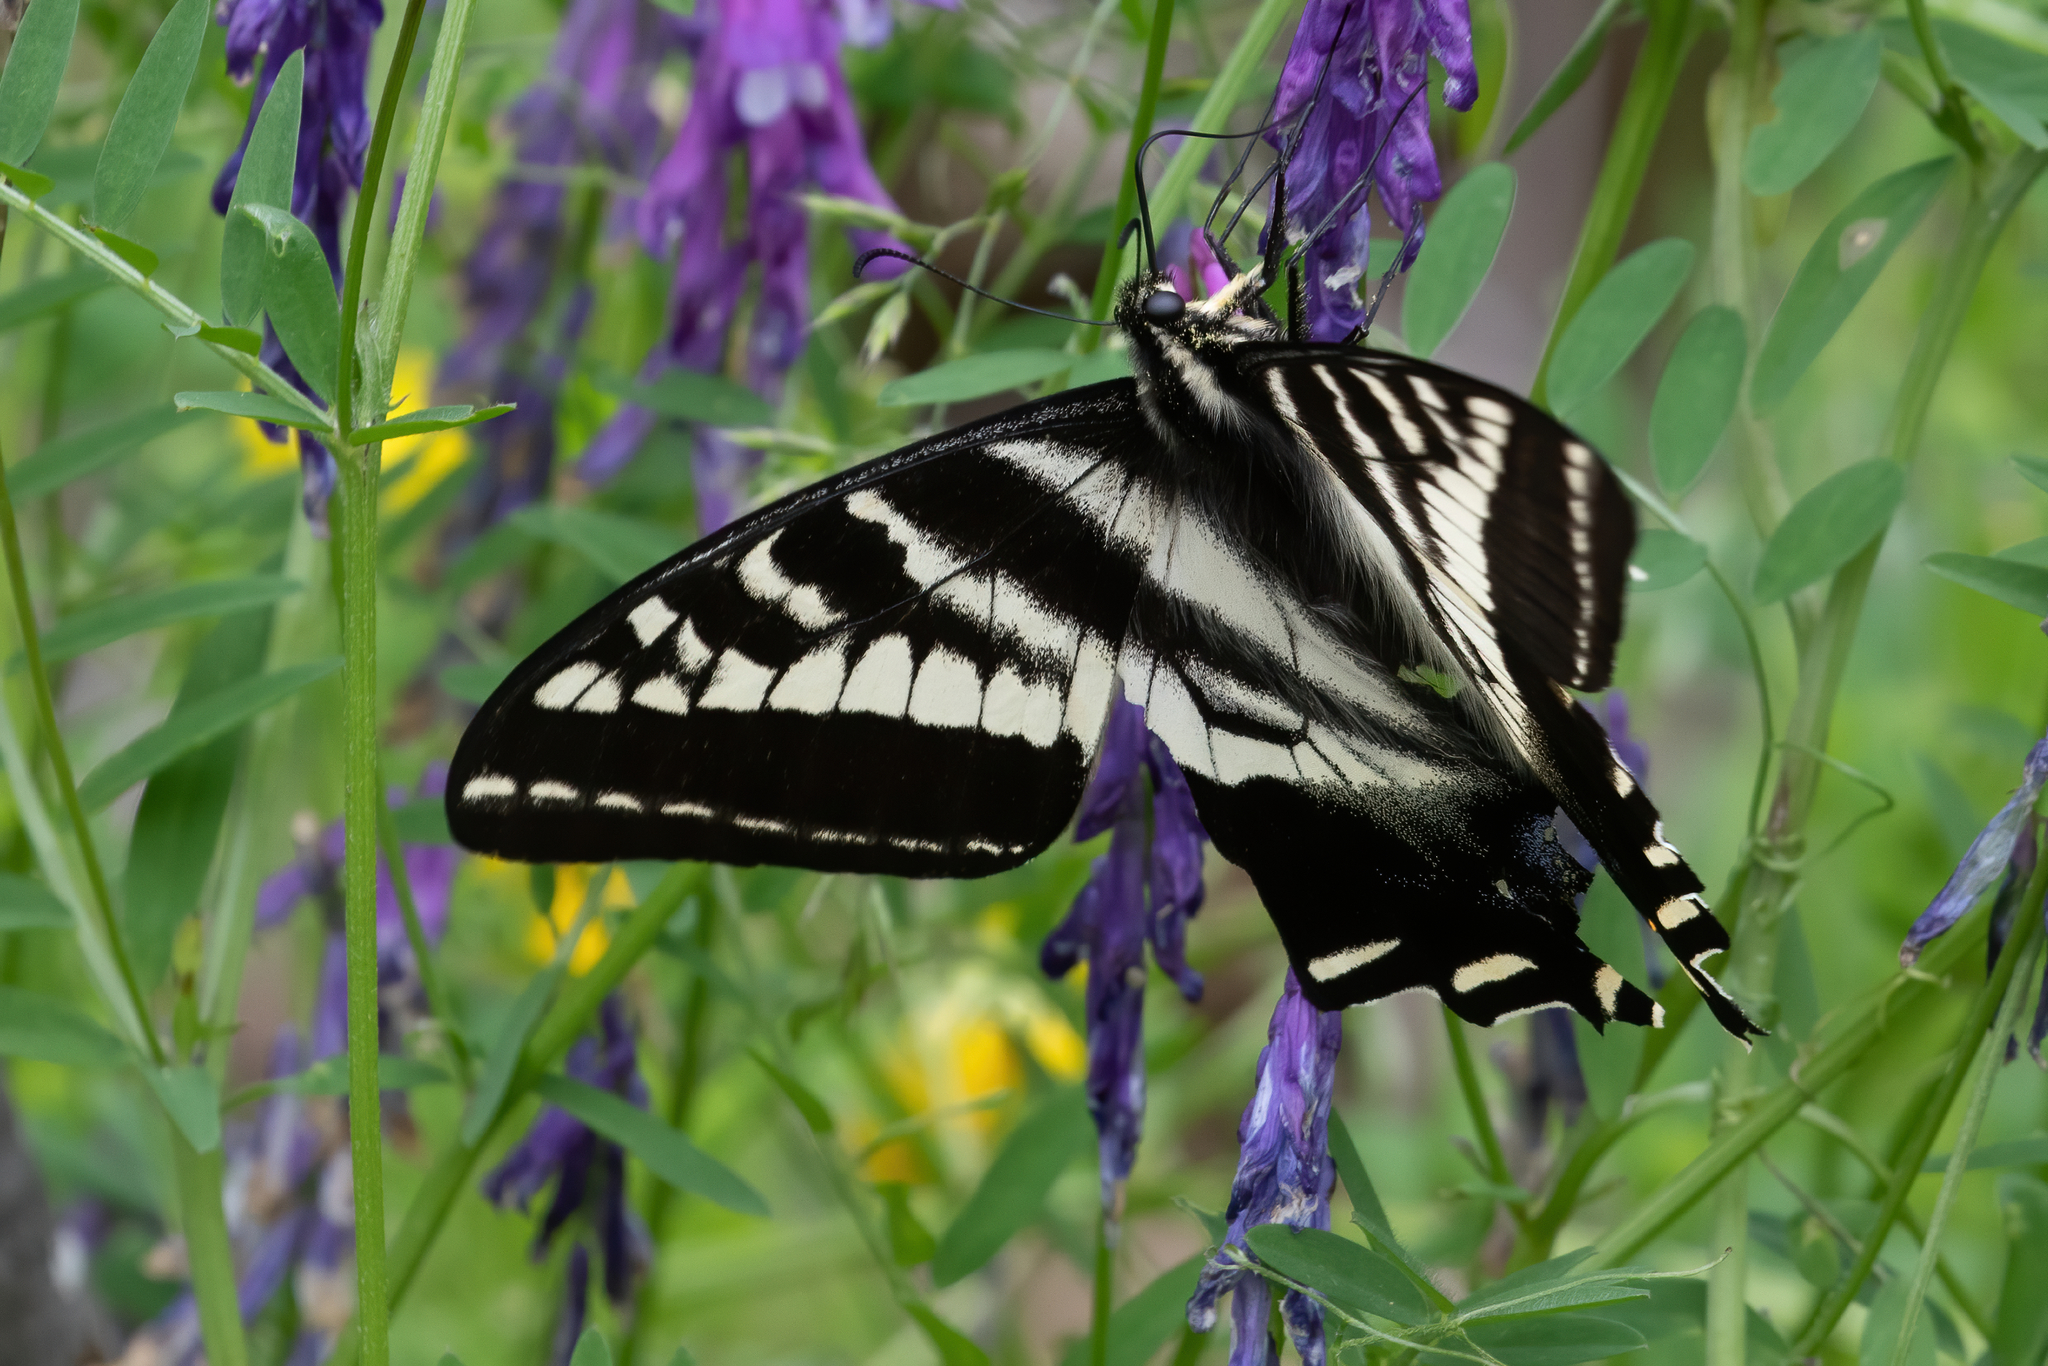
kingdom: Animalia
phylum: Arthropoda
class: Insecta
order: Lepidoptera
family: Papilionidae
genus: Papilio
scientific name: Papilio eurymedon
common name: Pale tiger swallowtail
